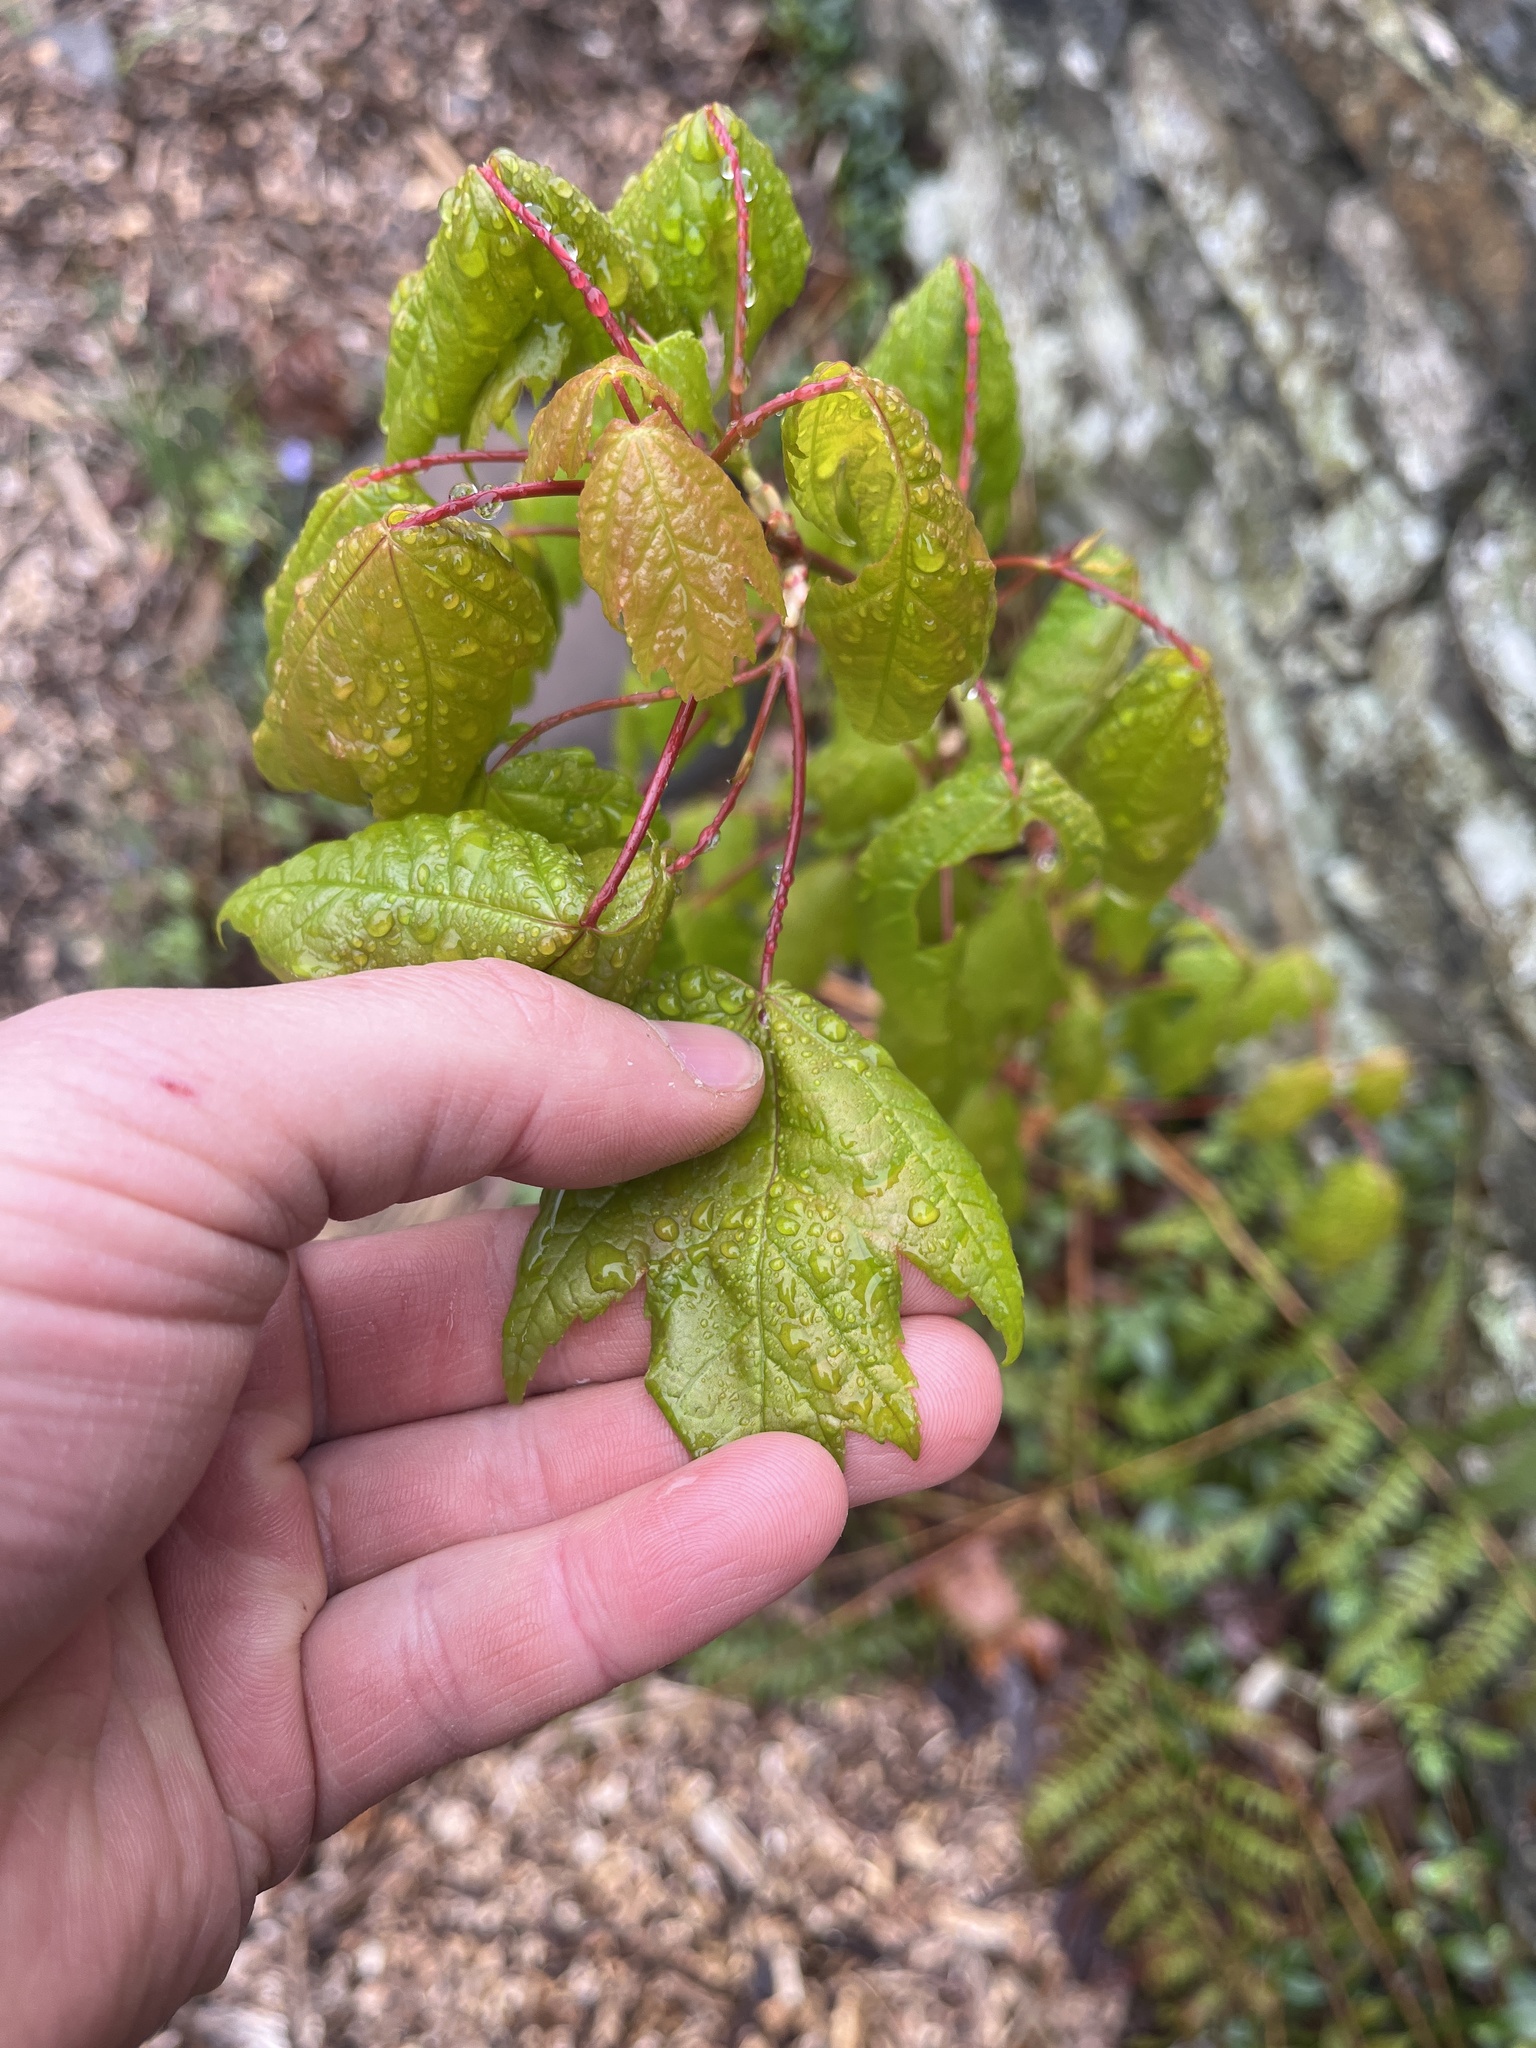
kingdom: Plantae
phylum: Tracheophyta
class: Magnoliopsida
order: Sapindales
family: Sapindaceae
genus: Acer
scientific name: Acer rubrum
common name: Red maple
